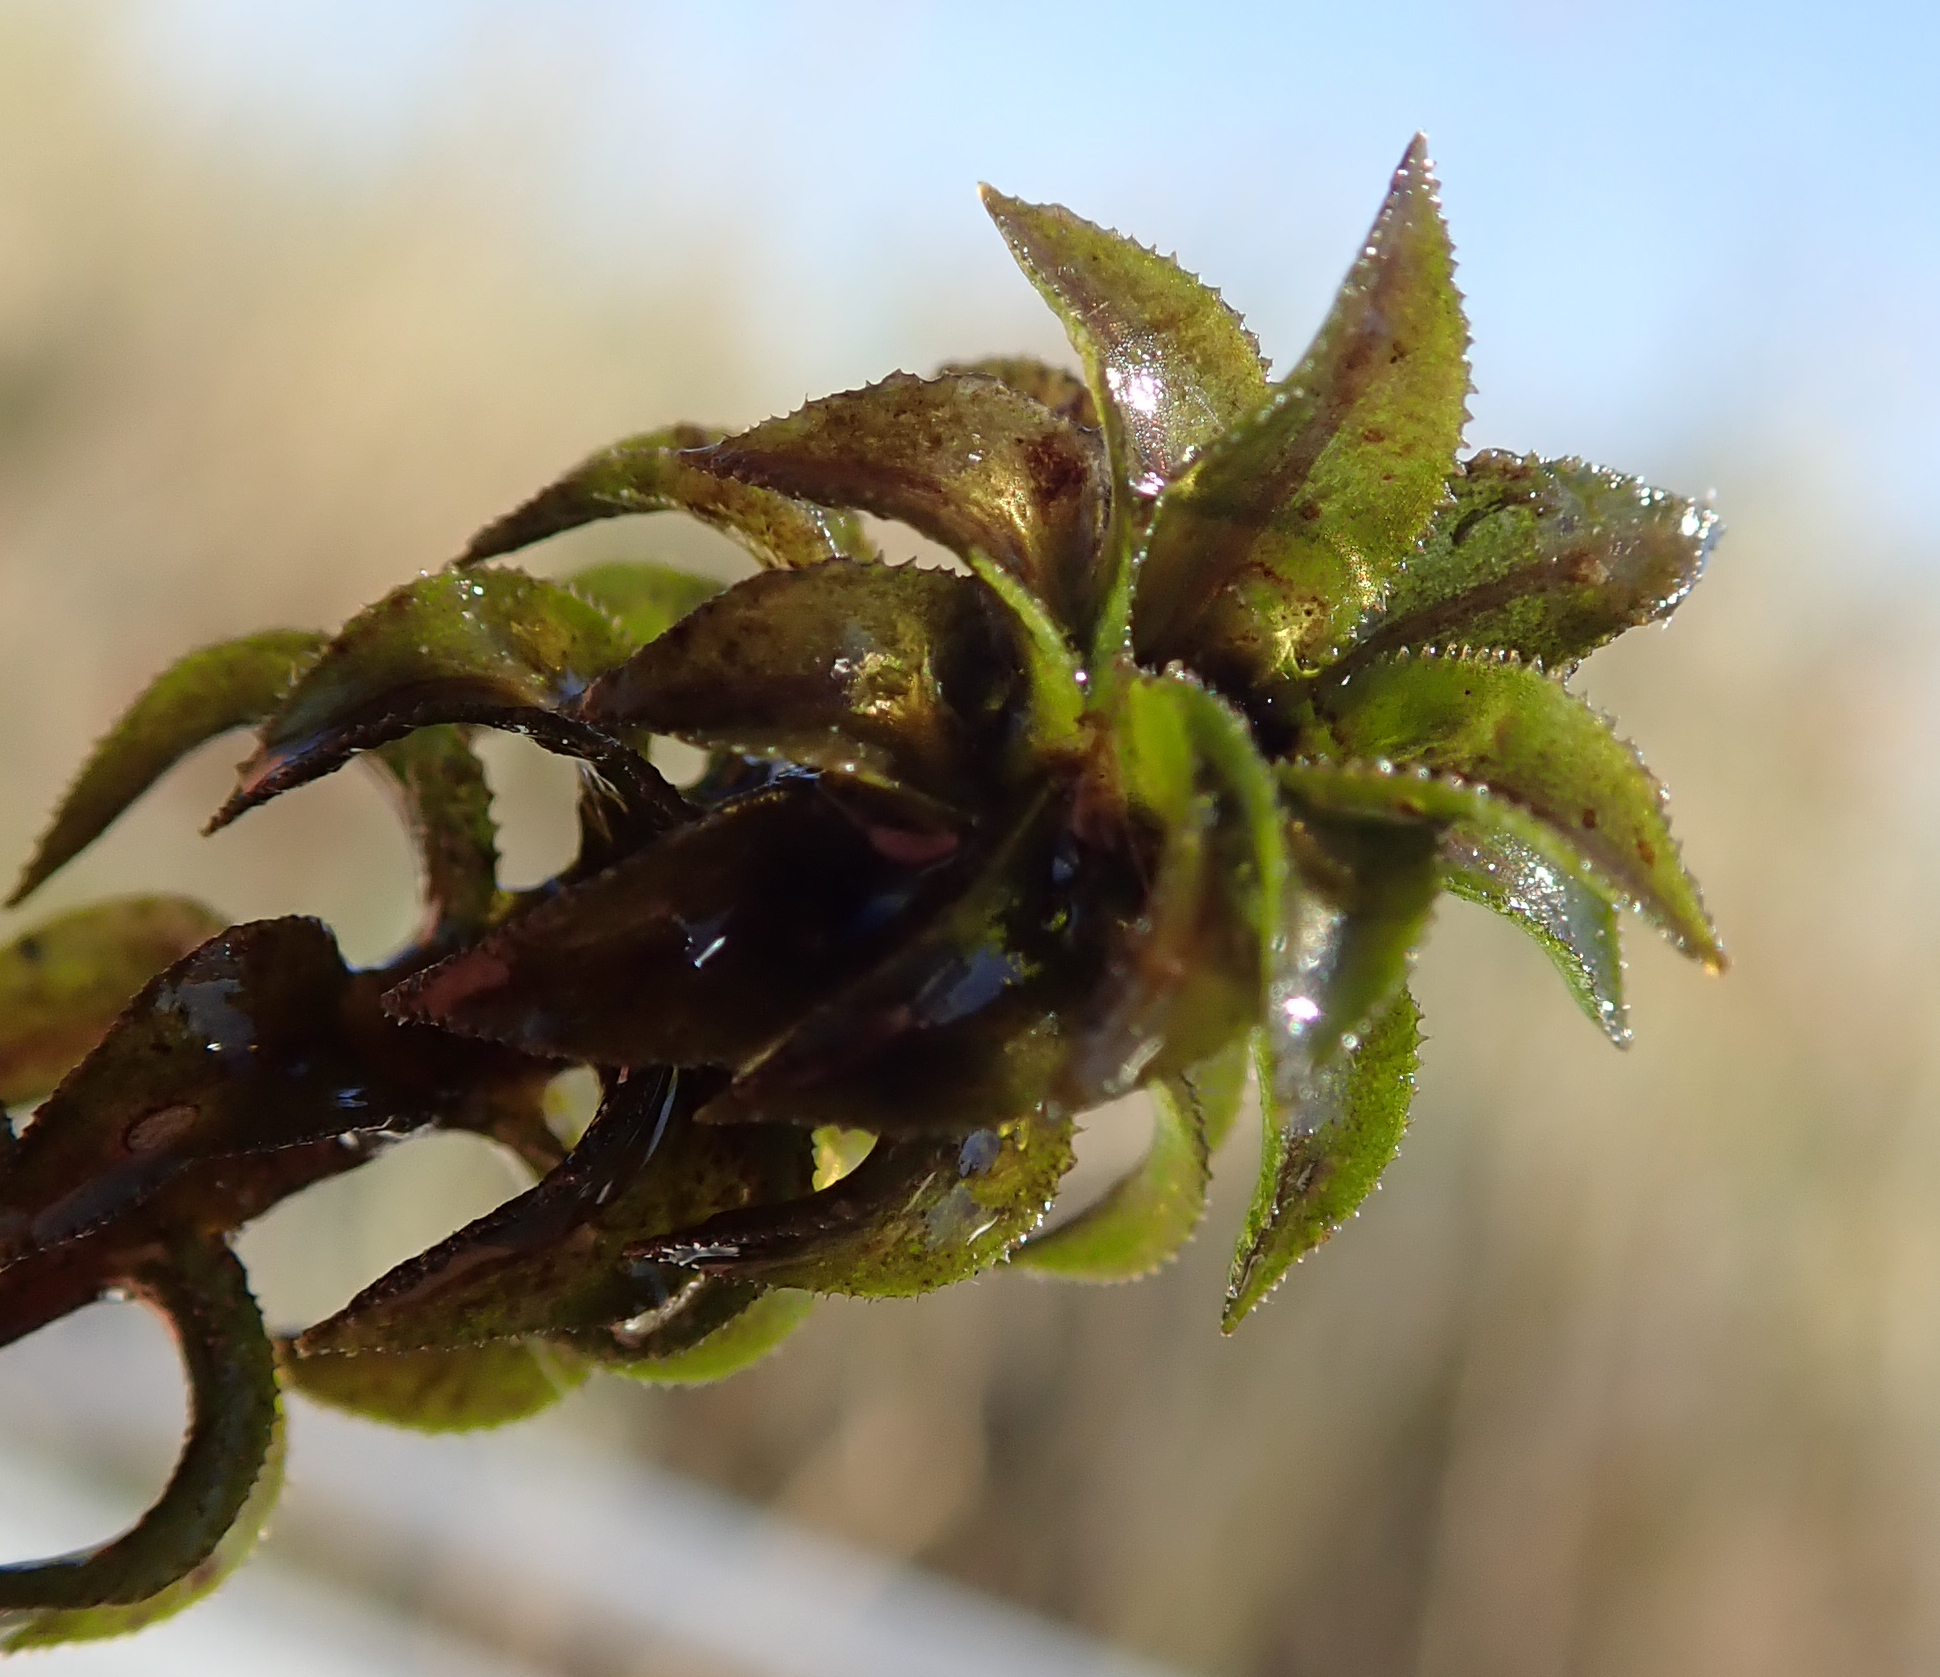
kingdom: Plantae
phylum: Tracheophyta
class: Liliopsida
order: Alismatales
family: Hydrocharitaceae
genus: Lagarosiphon
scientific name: Lagarosiphon ilicifolius
